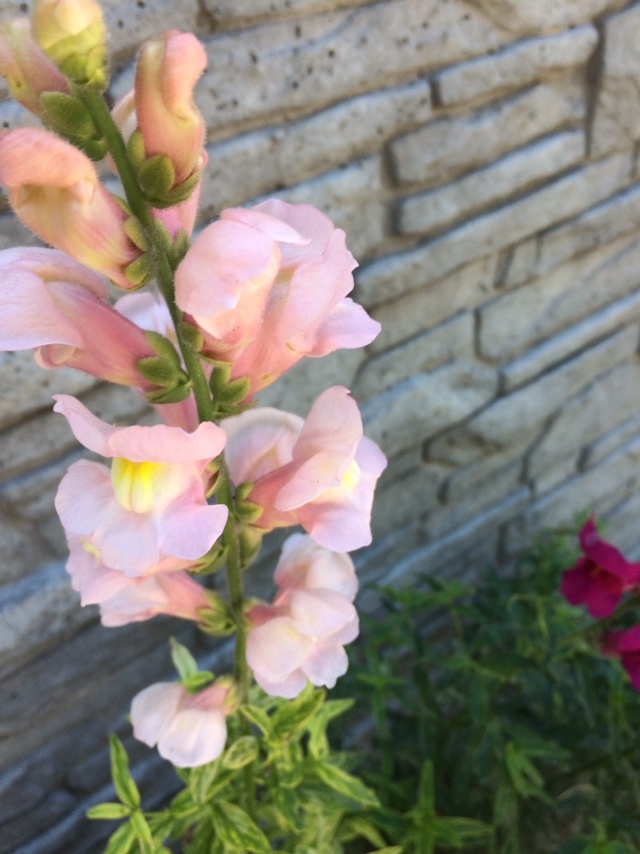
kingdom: Plantae
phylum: Tracheophyta
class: Magnoliopsida
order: Lamiales
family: Plantaginaceae
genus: Antirrhinum
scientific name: Antirrhinum majus
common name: Snapdragon
